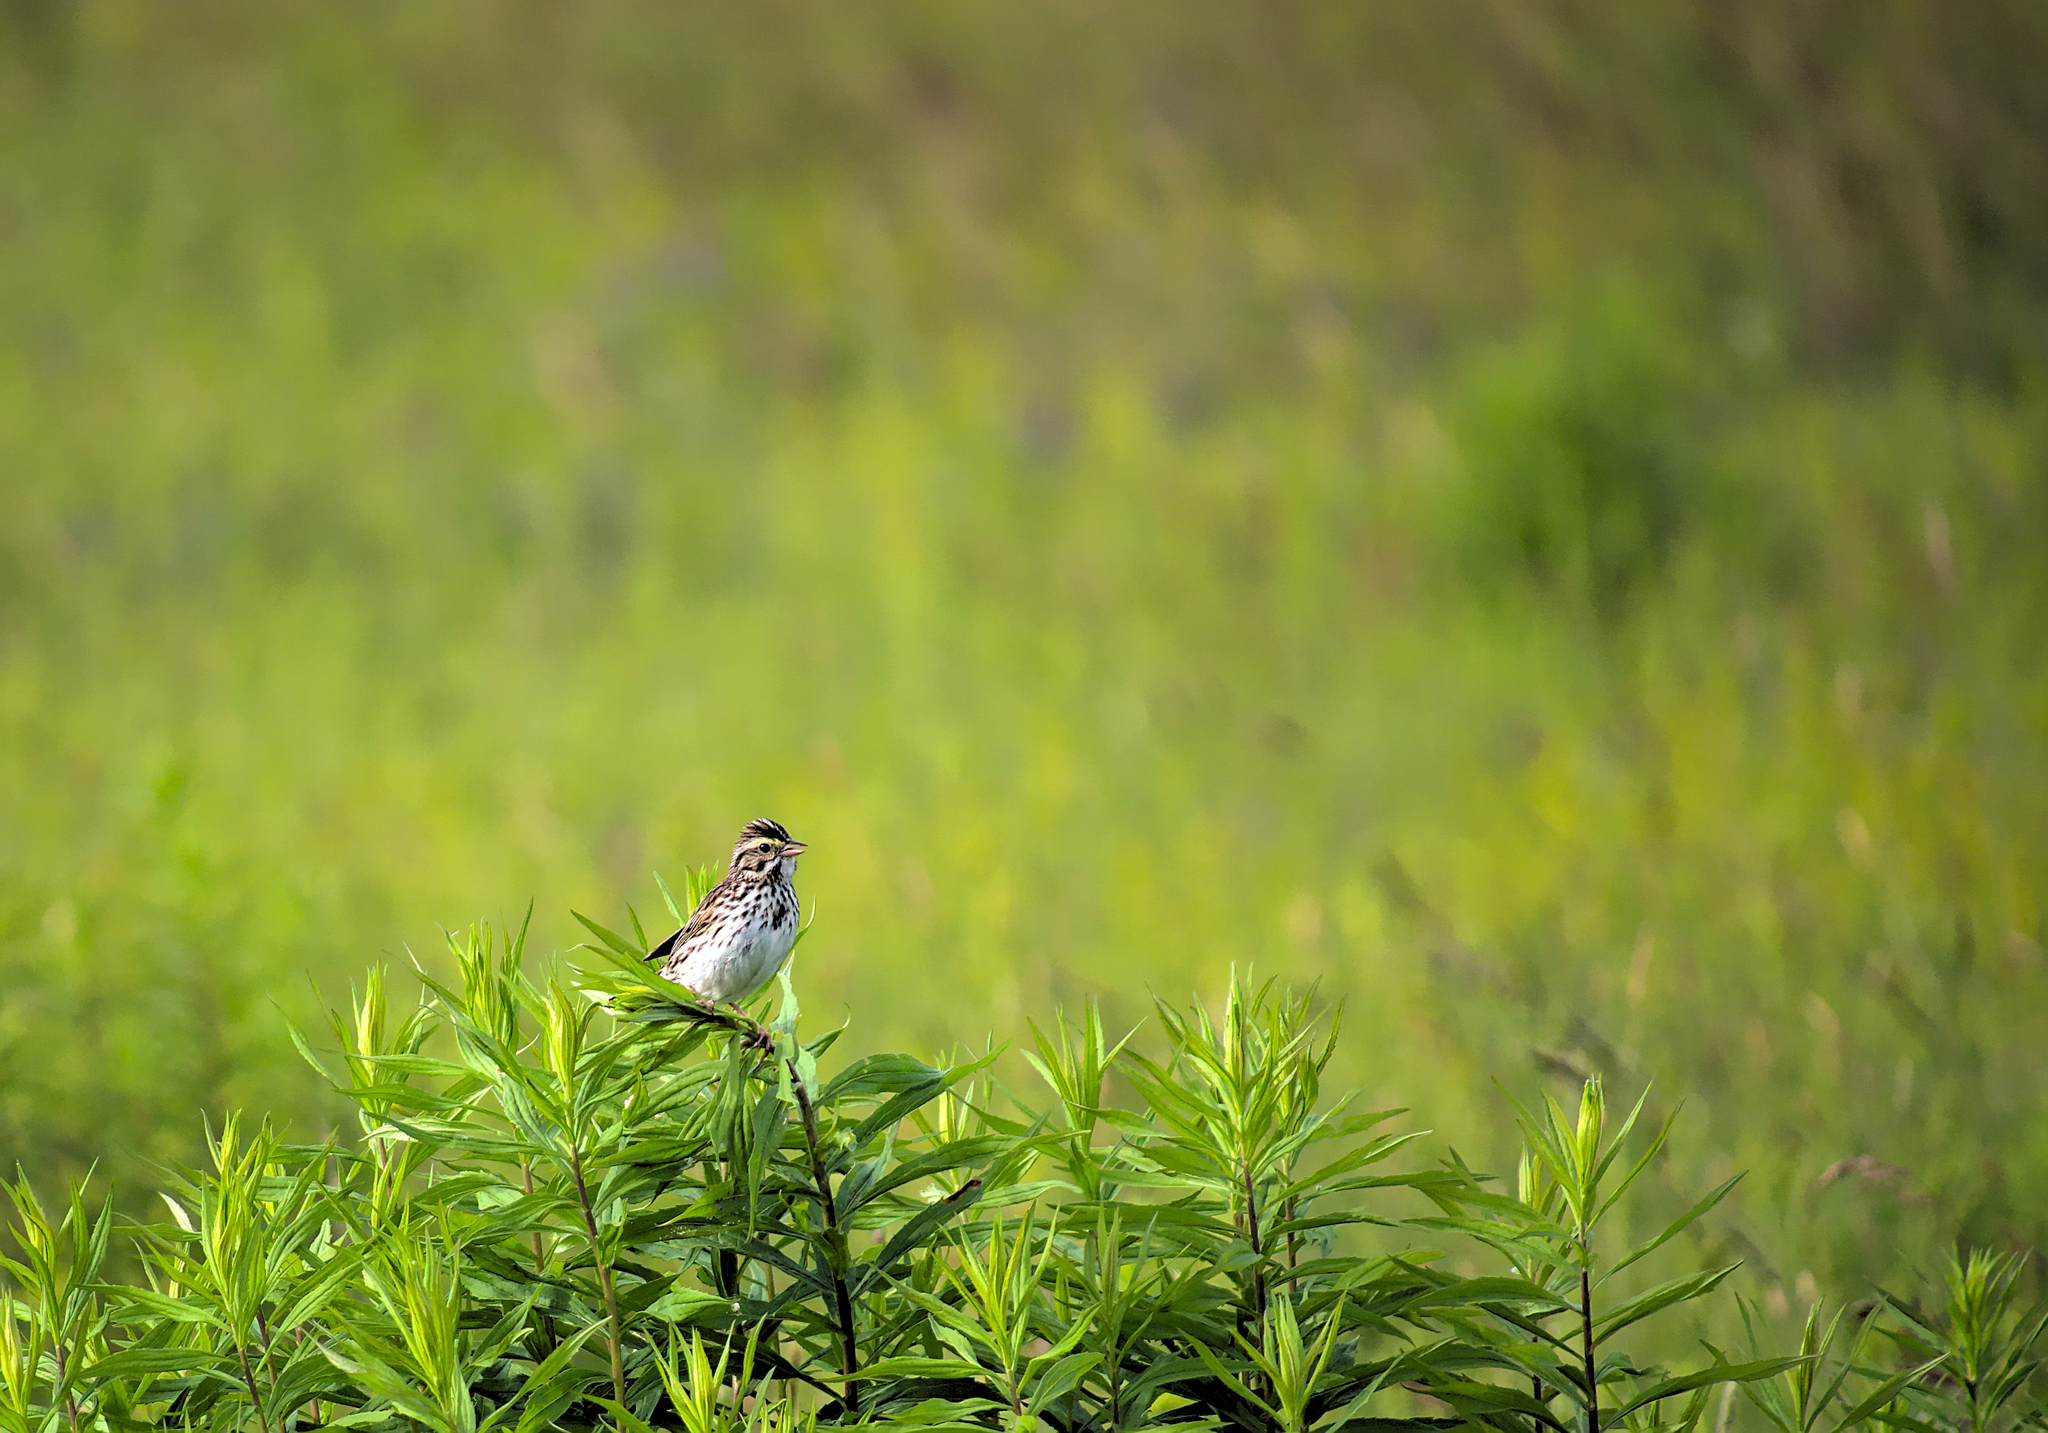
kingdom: Animalia
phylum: Chordata
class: Aves
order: Passeriformes
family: Passerellidae
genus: Melospiza
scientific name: Melospiza melodia
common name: Song sparrow
